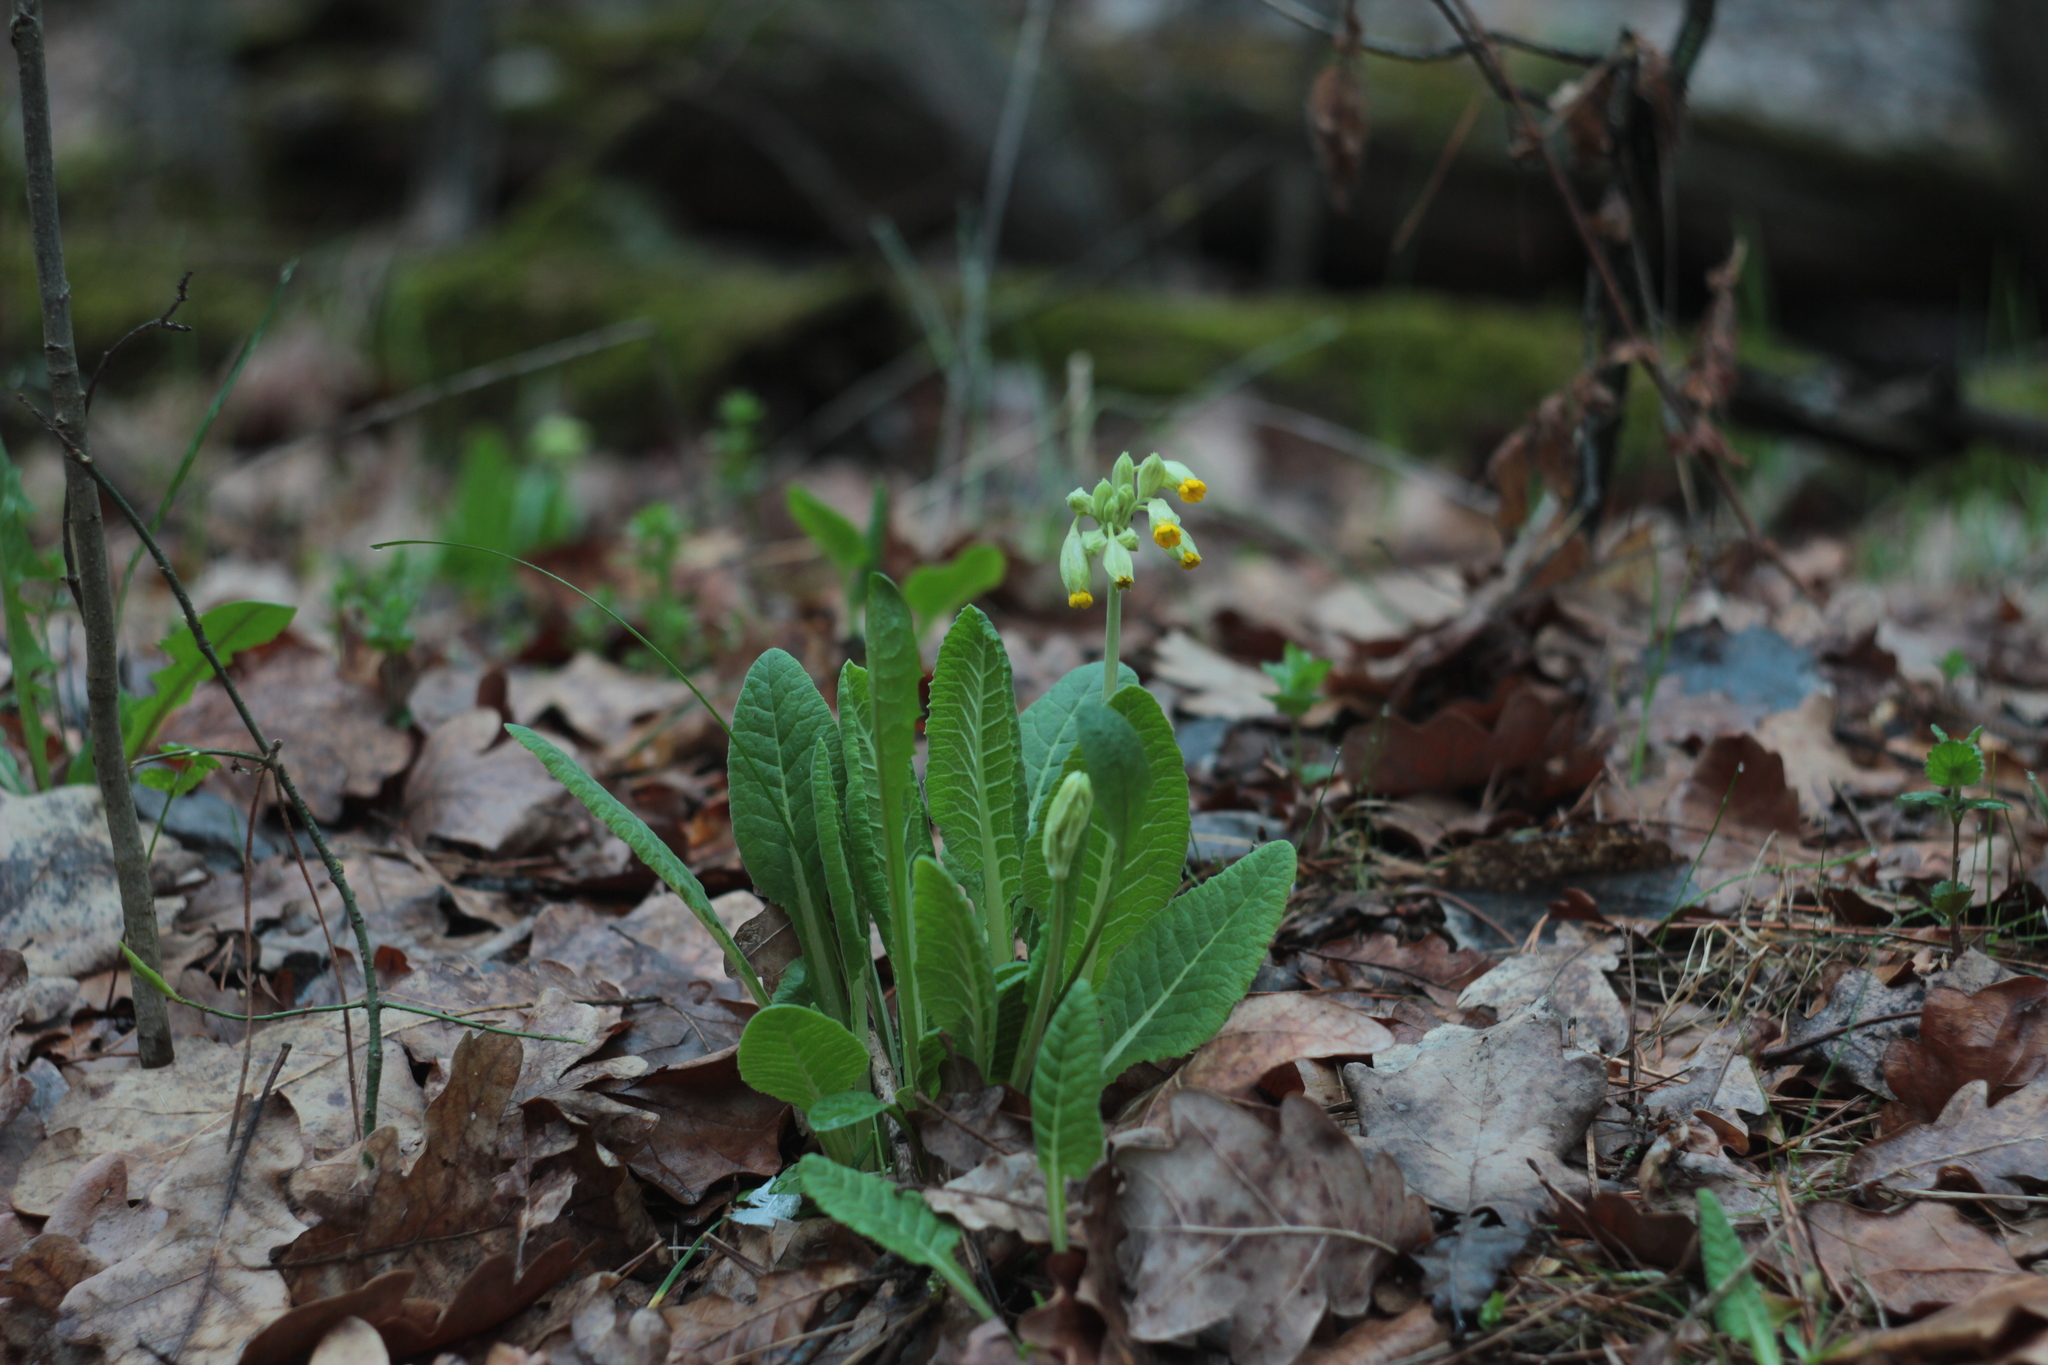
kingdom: Plantae
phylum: Tracheophyta
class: Magnoliopsida
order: Ericales
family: Primulaceae
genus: Primula
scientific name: Primula veris
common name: Cowslip
